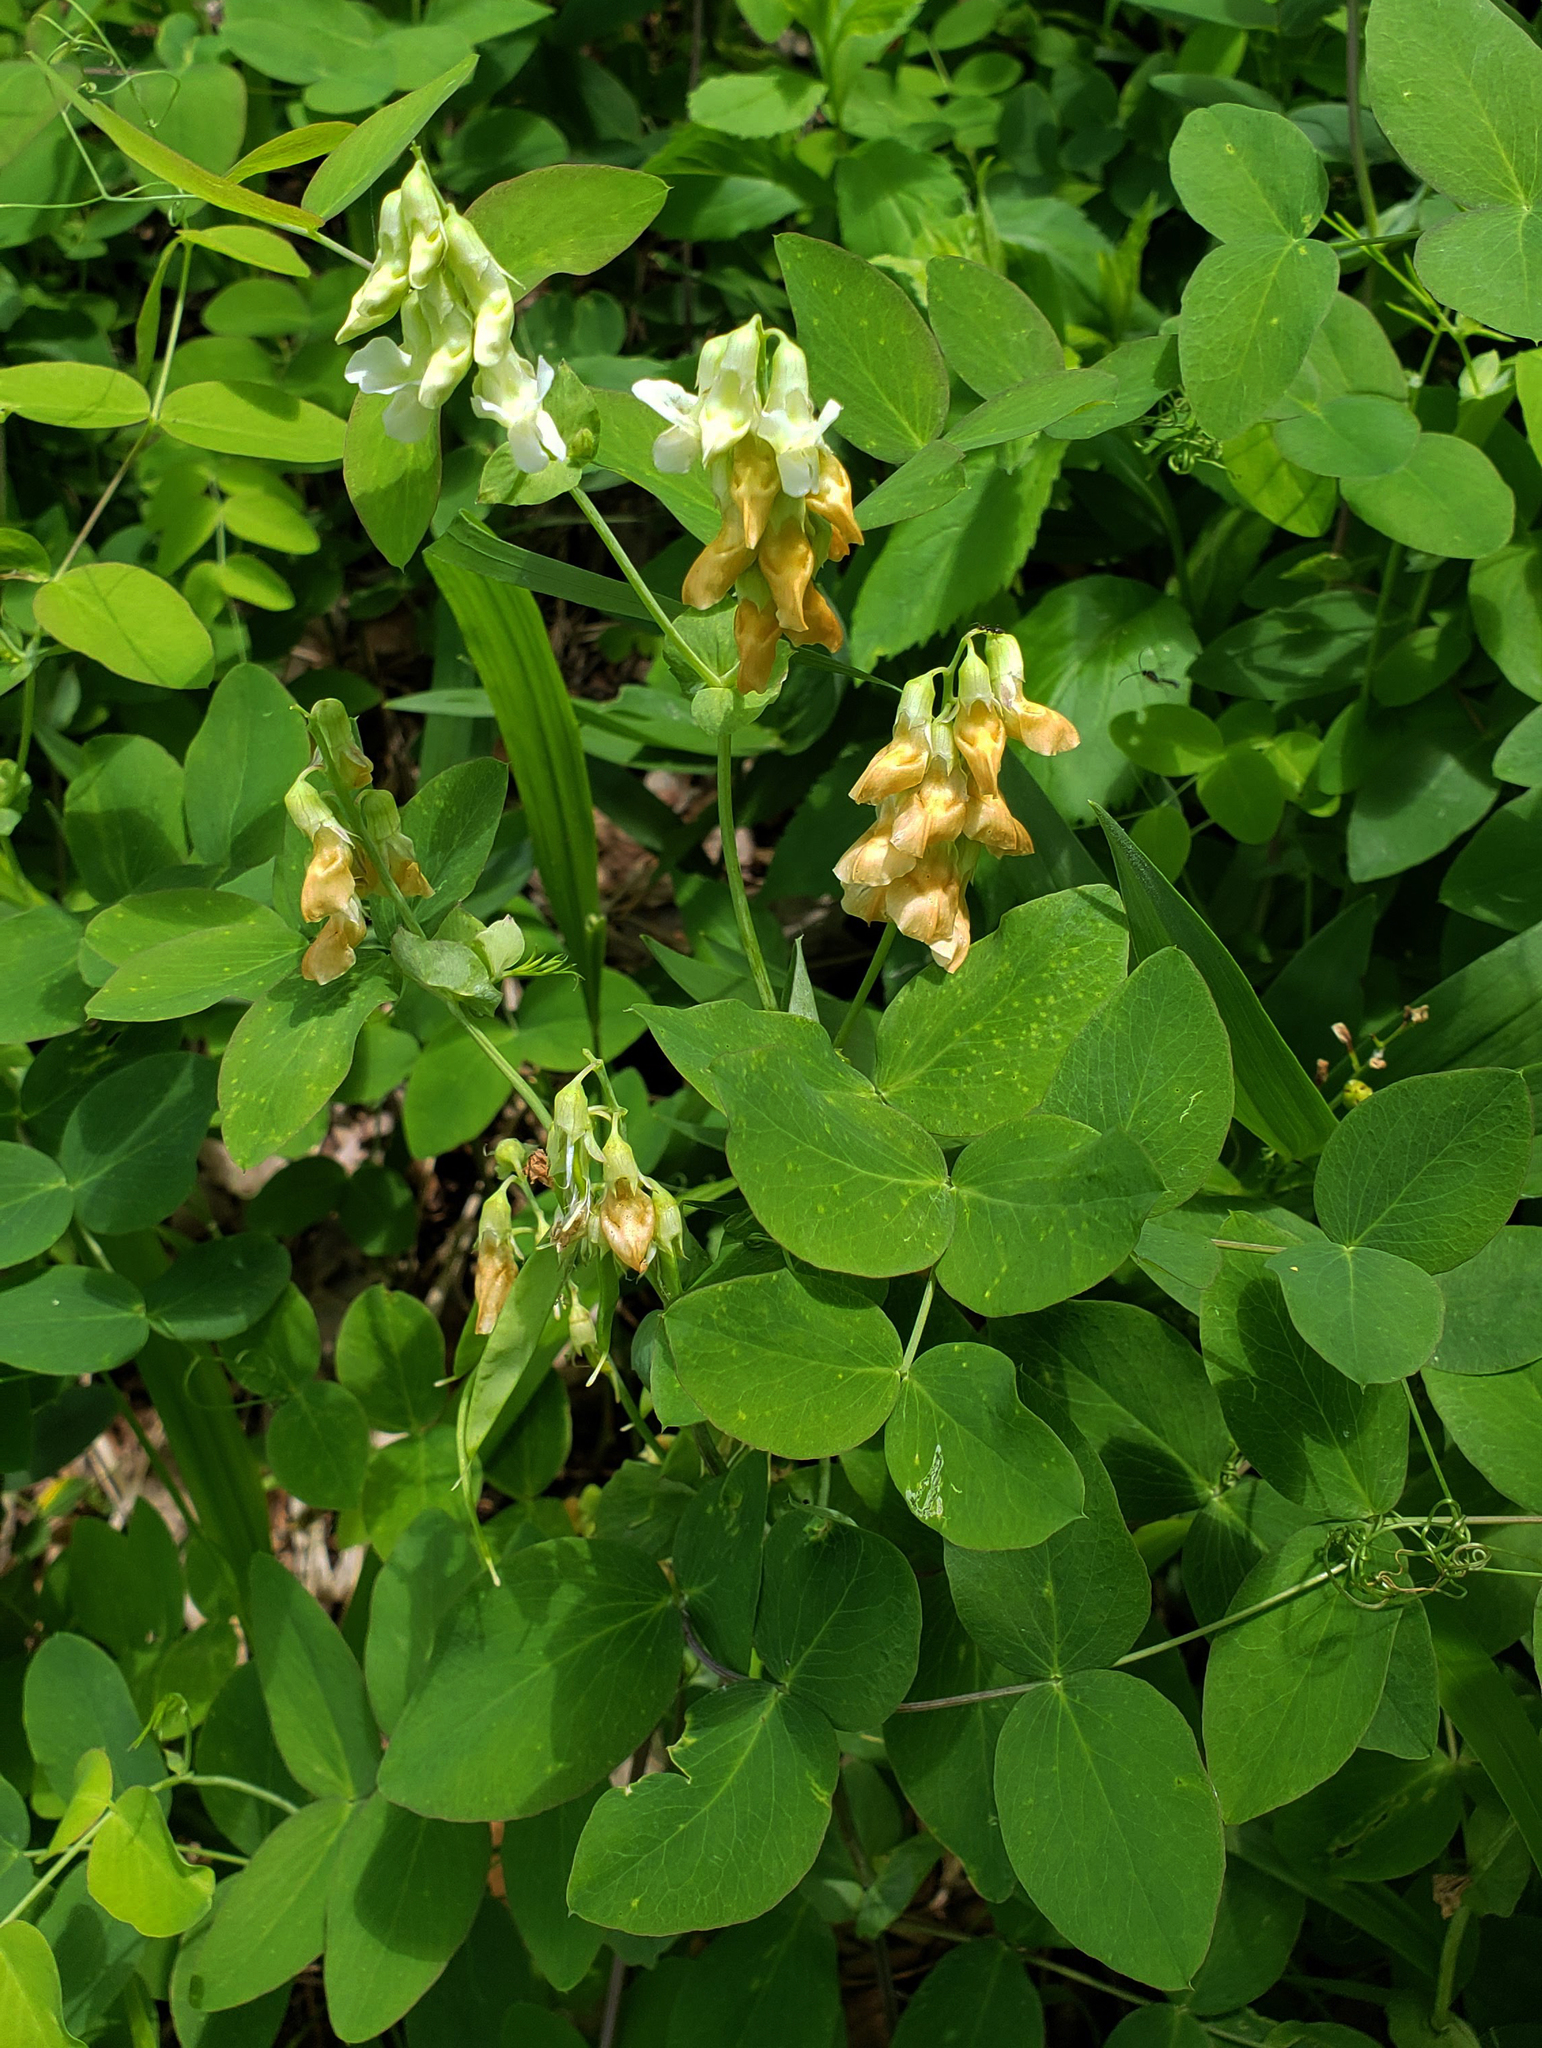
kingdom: Plantae
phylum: Tracheophyta
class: Magnoliopsida
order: Fabales
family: Fabaceae
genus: Lathyrus
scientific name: Lathyrus ochroleucus
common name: Pale vetchling
